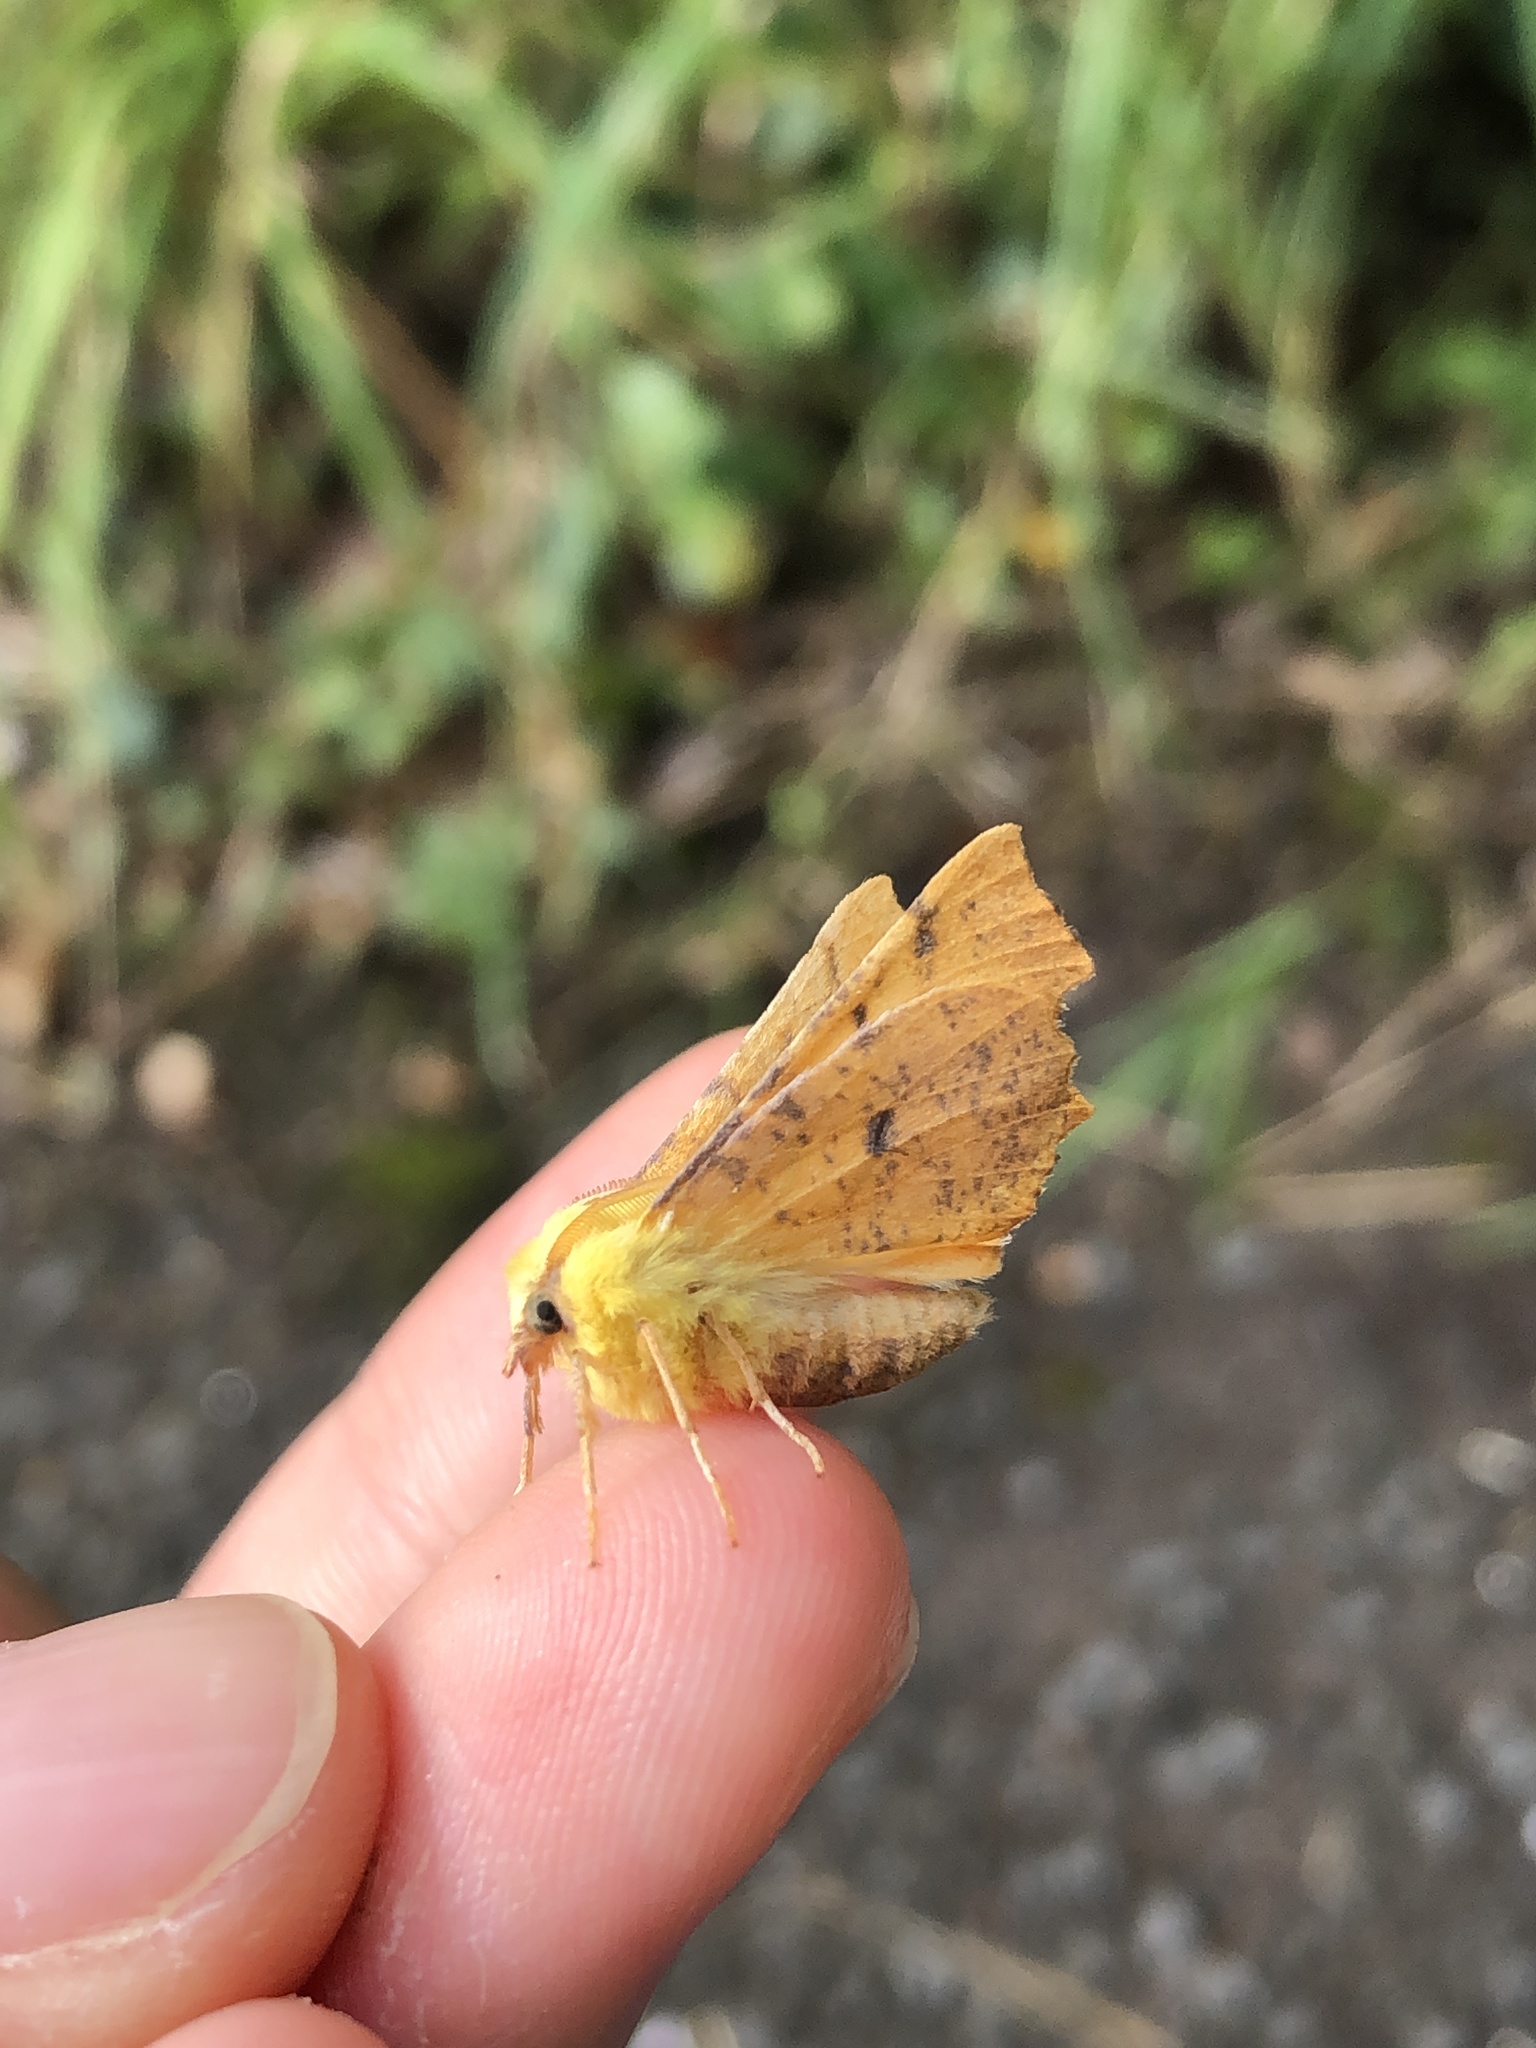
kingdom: Animalia
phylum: Arthropoda
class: Insecta
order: Lepidoptera
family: Geometridae
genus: Ennomos
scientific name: Ennomos alniaria
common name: Canary-shouldered thorn
